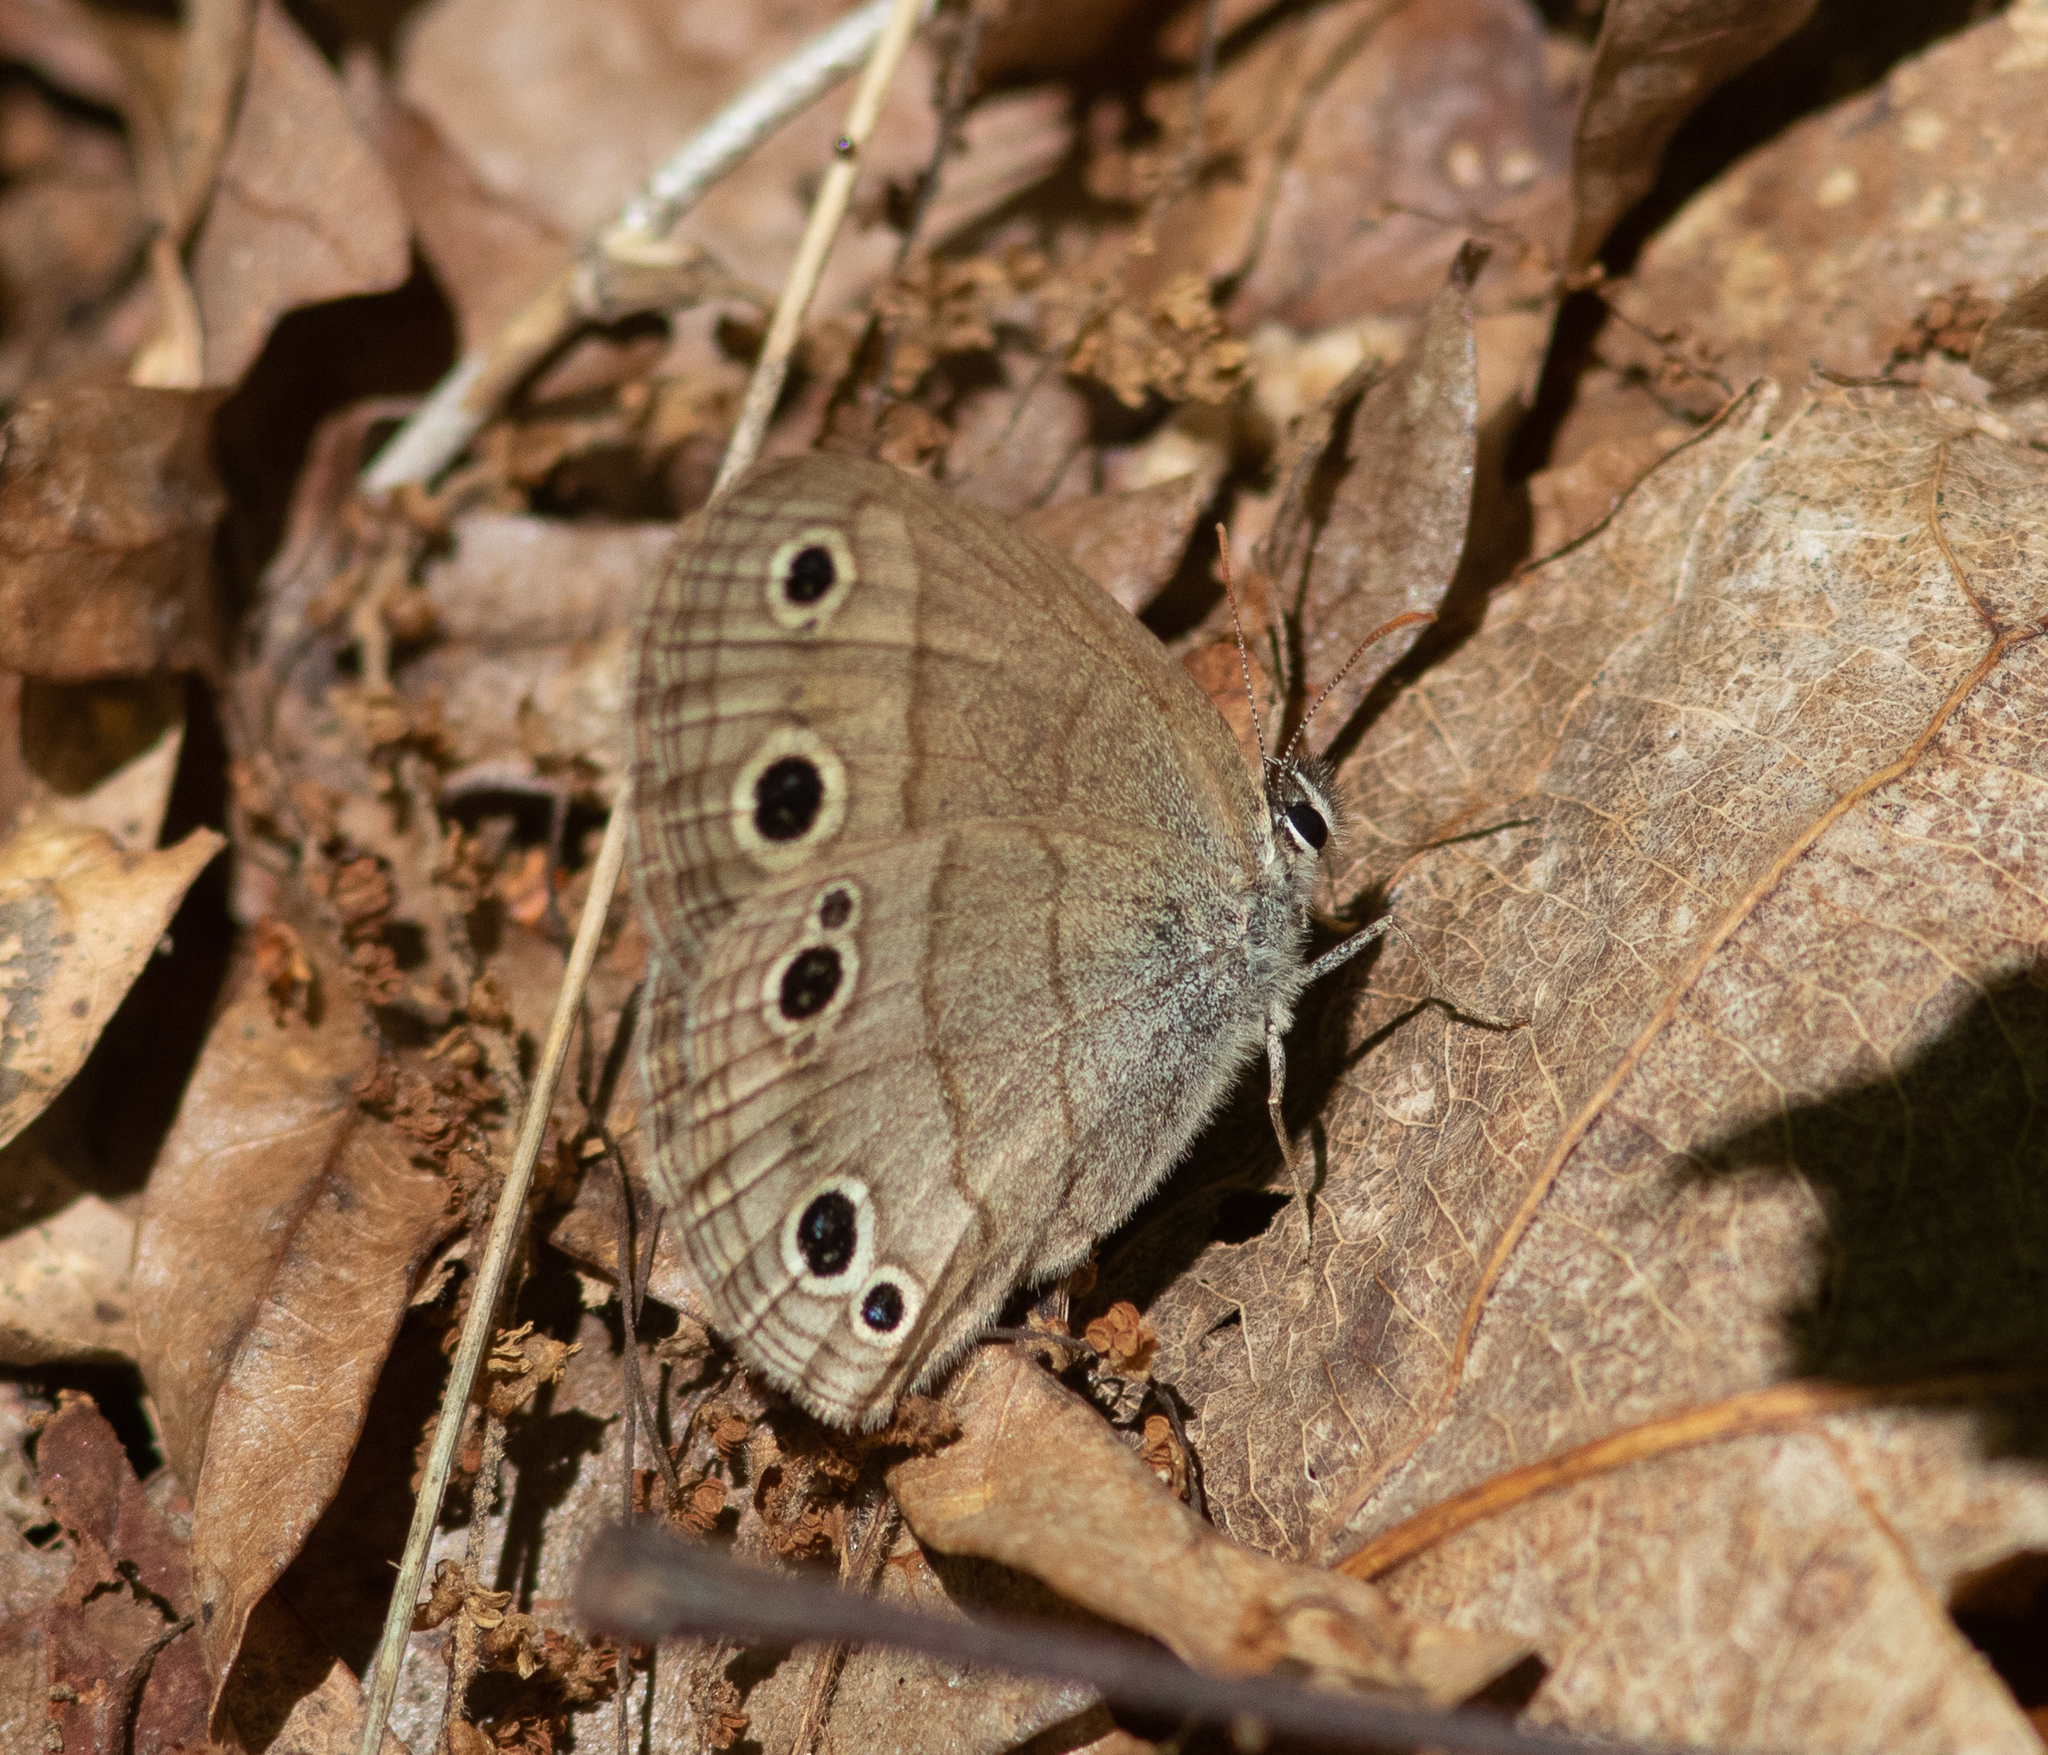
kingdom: Animalia
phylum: Arthropoda
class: Insecta
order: Lepidoptera
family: Nymphalidae
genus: Euptychia
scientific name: Euptychia cymela
